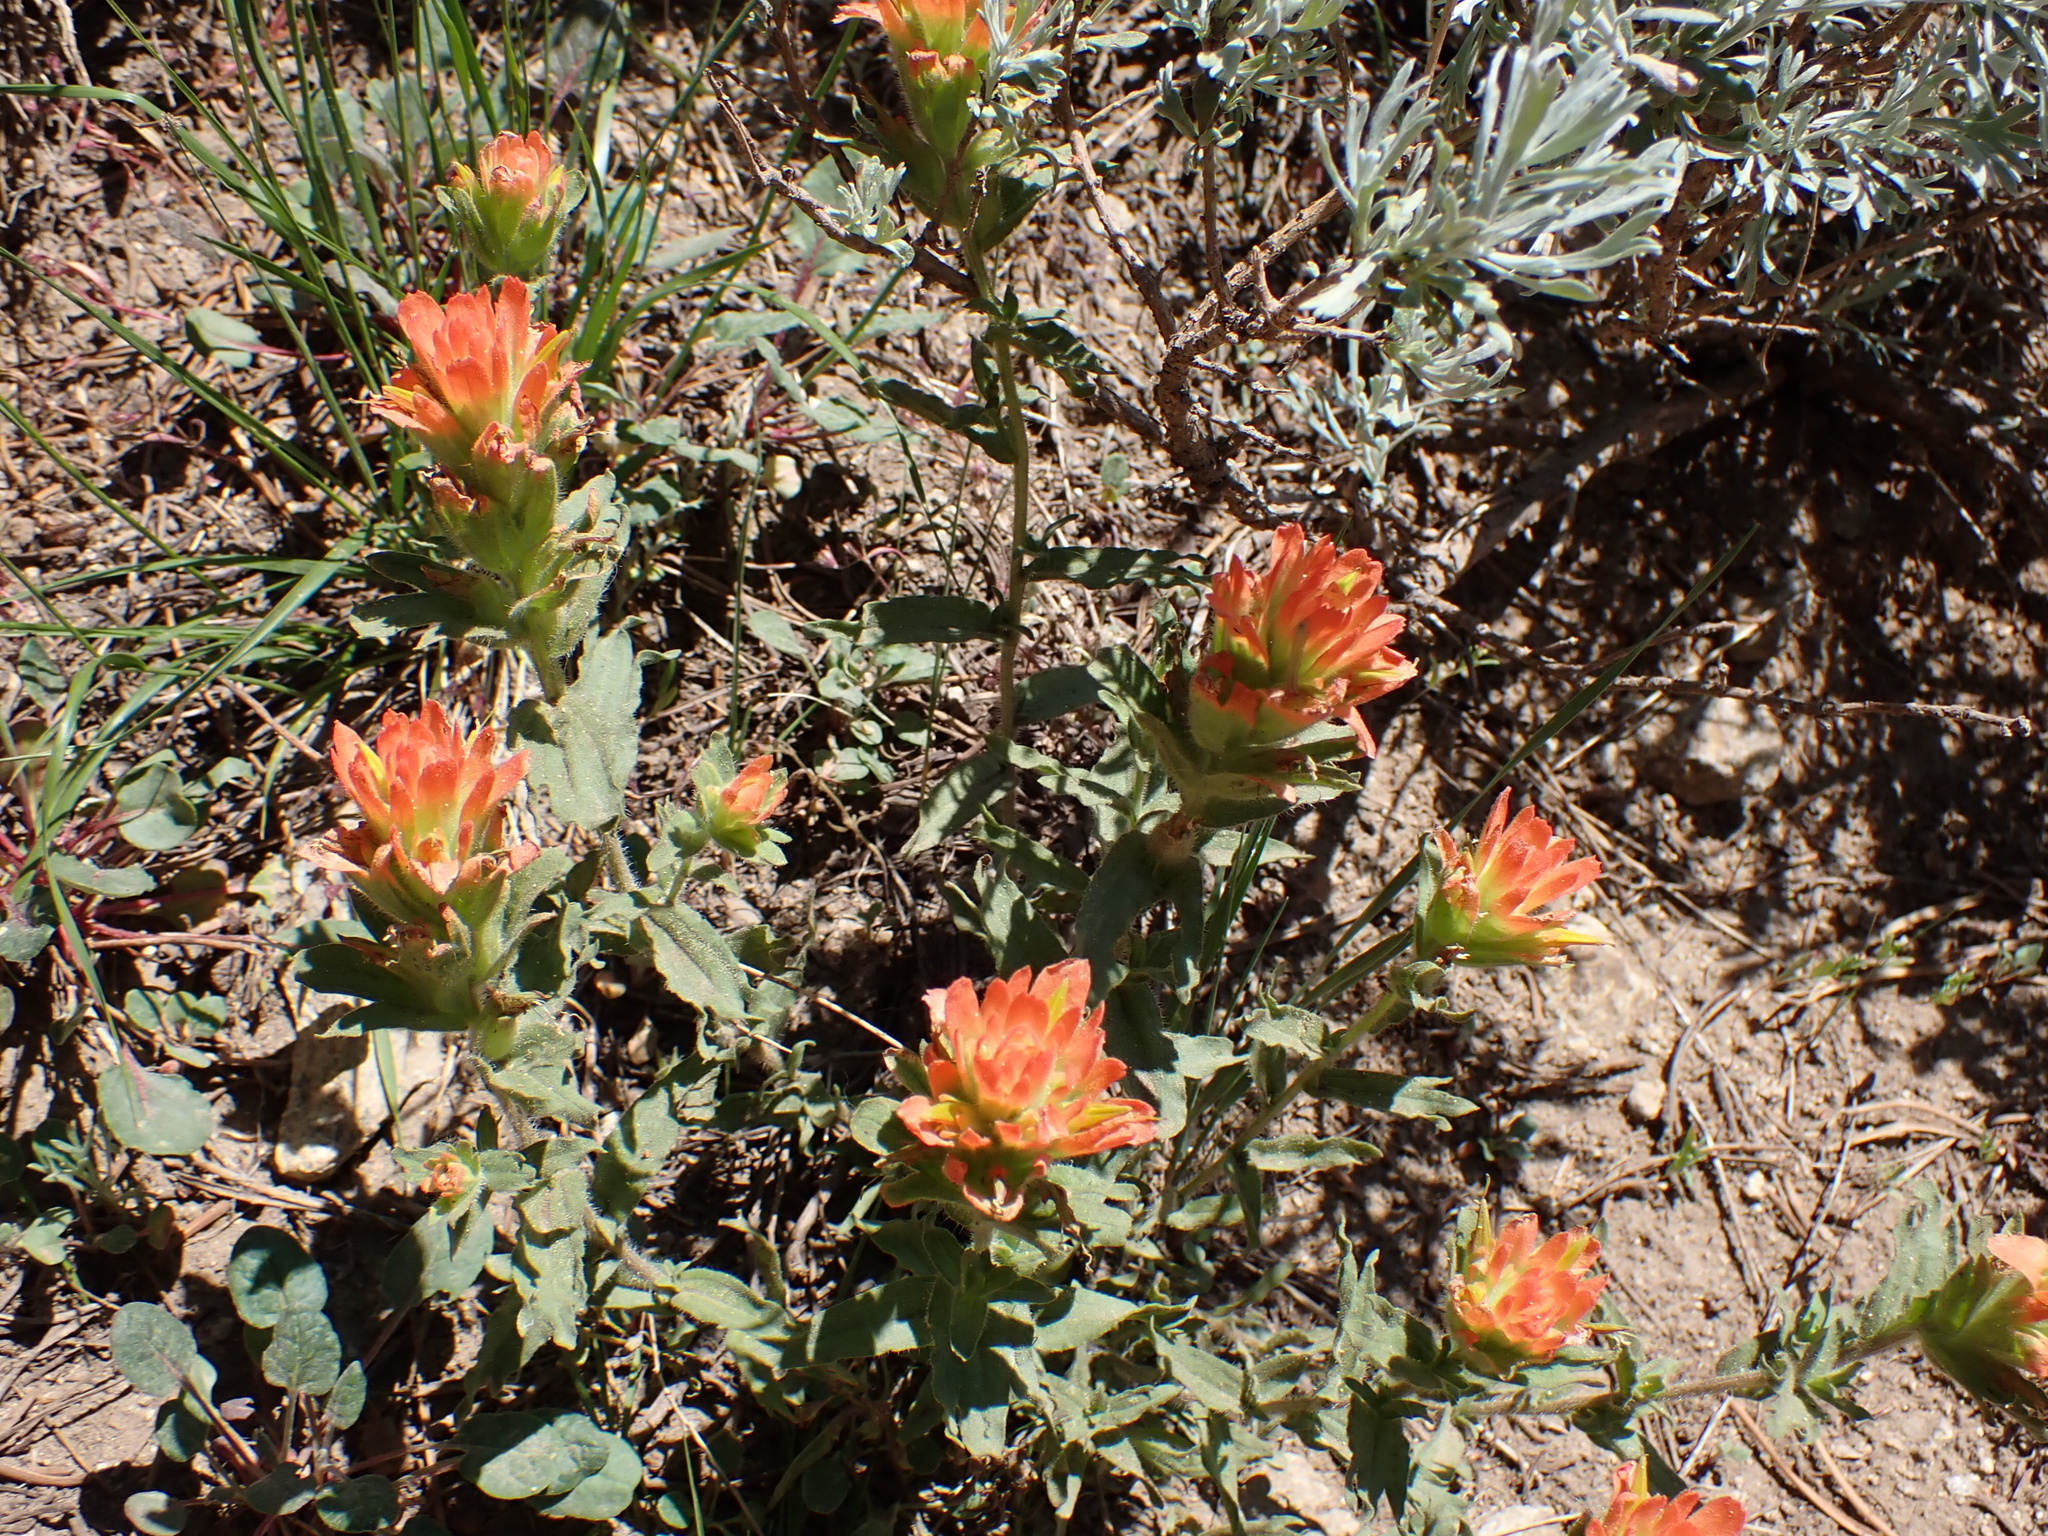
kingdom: Plantae
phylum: Tracheophyta
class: Magnoliopsida
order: Lamiales
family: Orobanchaceae
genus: Castilleja
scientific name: Castilleja applegatei
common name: Wavy-leaf paintbrush
